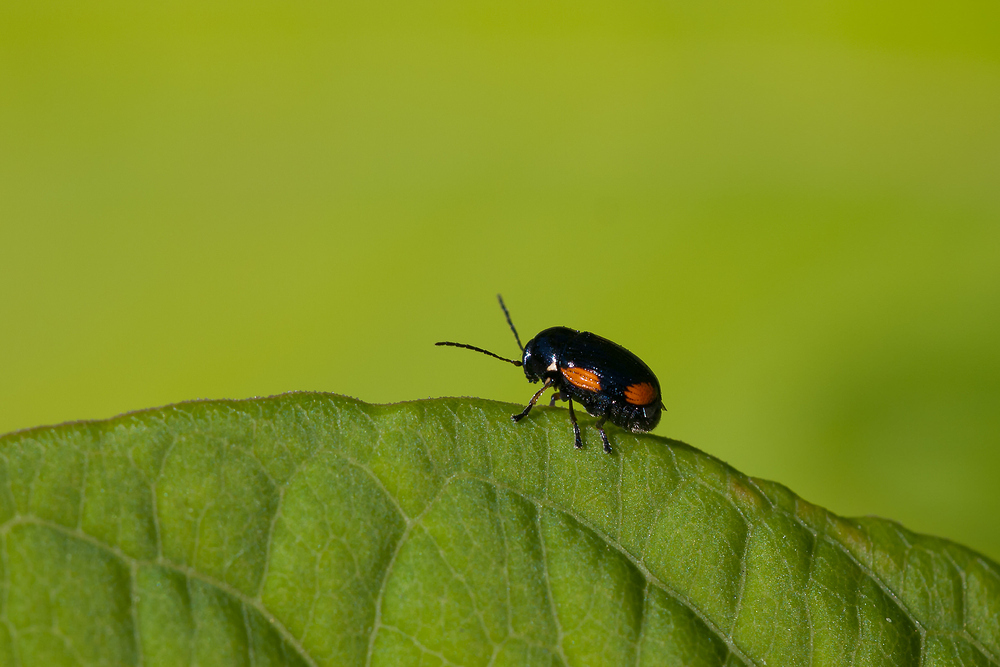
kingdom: Animalia
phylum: Arthropoda
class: Insecta
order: Coleoptera
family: Chrysomelidae
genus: Cryptocephalus
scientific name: Cryptocephalus moraei
